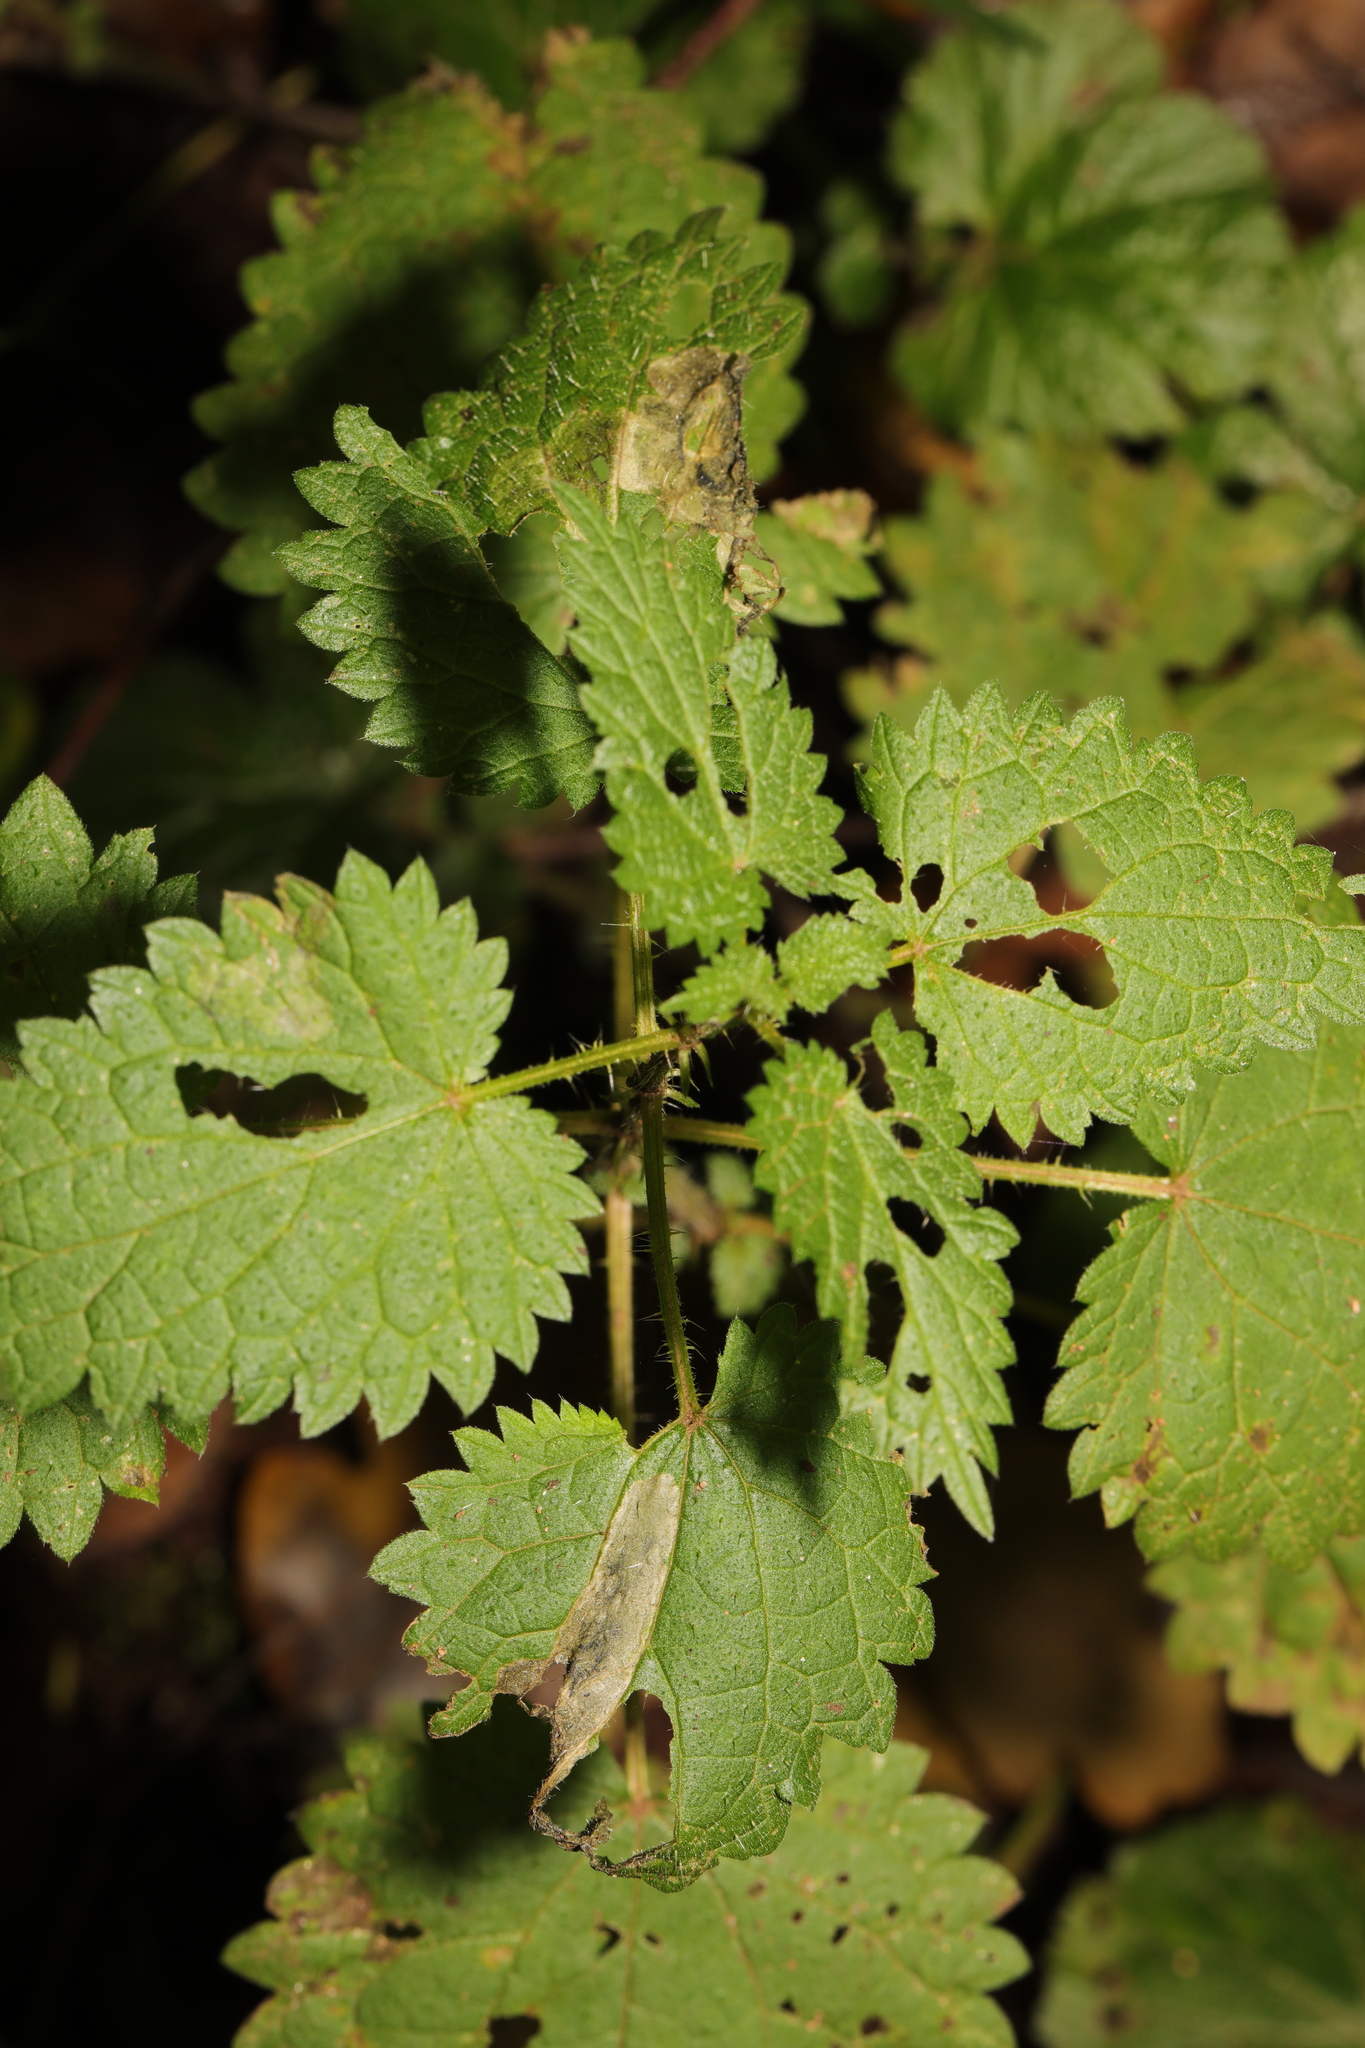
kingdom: Plantae
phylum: Tracheophyta
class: Magnoliopsida
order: Rosales
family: Urticaceae
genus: Urtica
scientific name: Urtica dioica
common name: Common nettle
